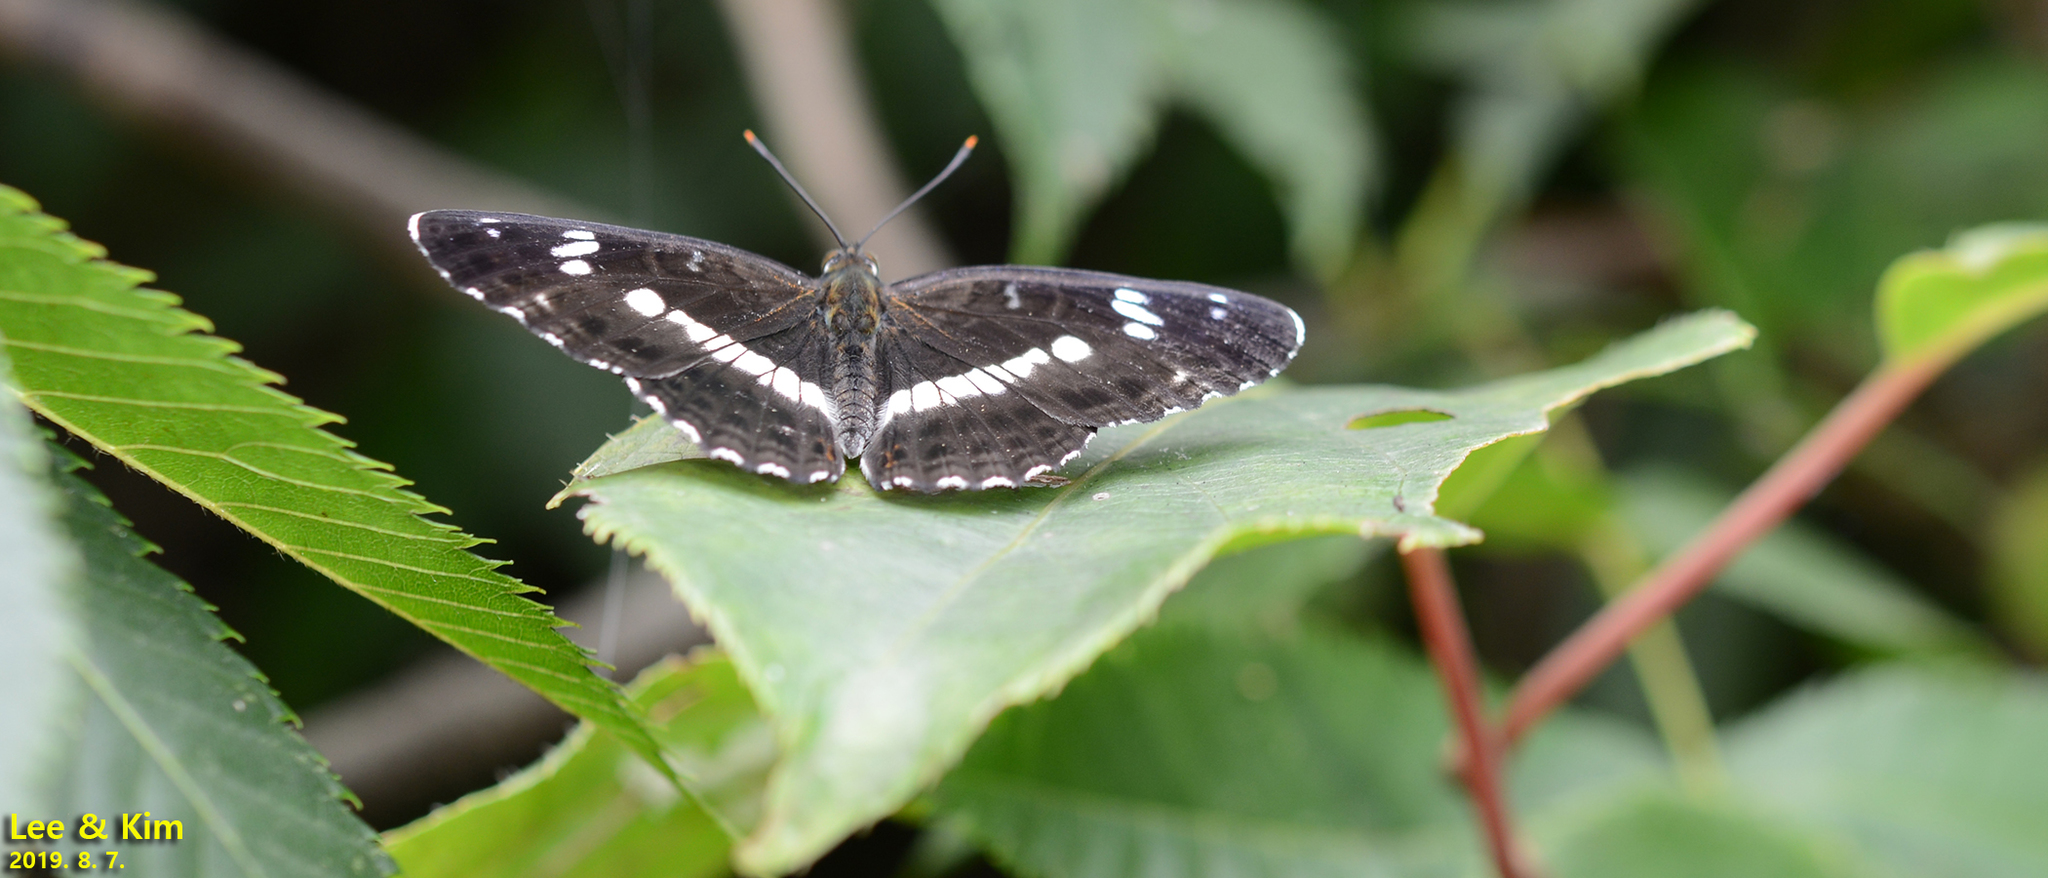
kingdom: Animalia
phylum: Arthropoda
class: Insecta
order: Lepidoptera
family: Nymphalidae
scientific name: Nymphalidae
